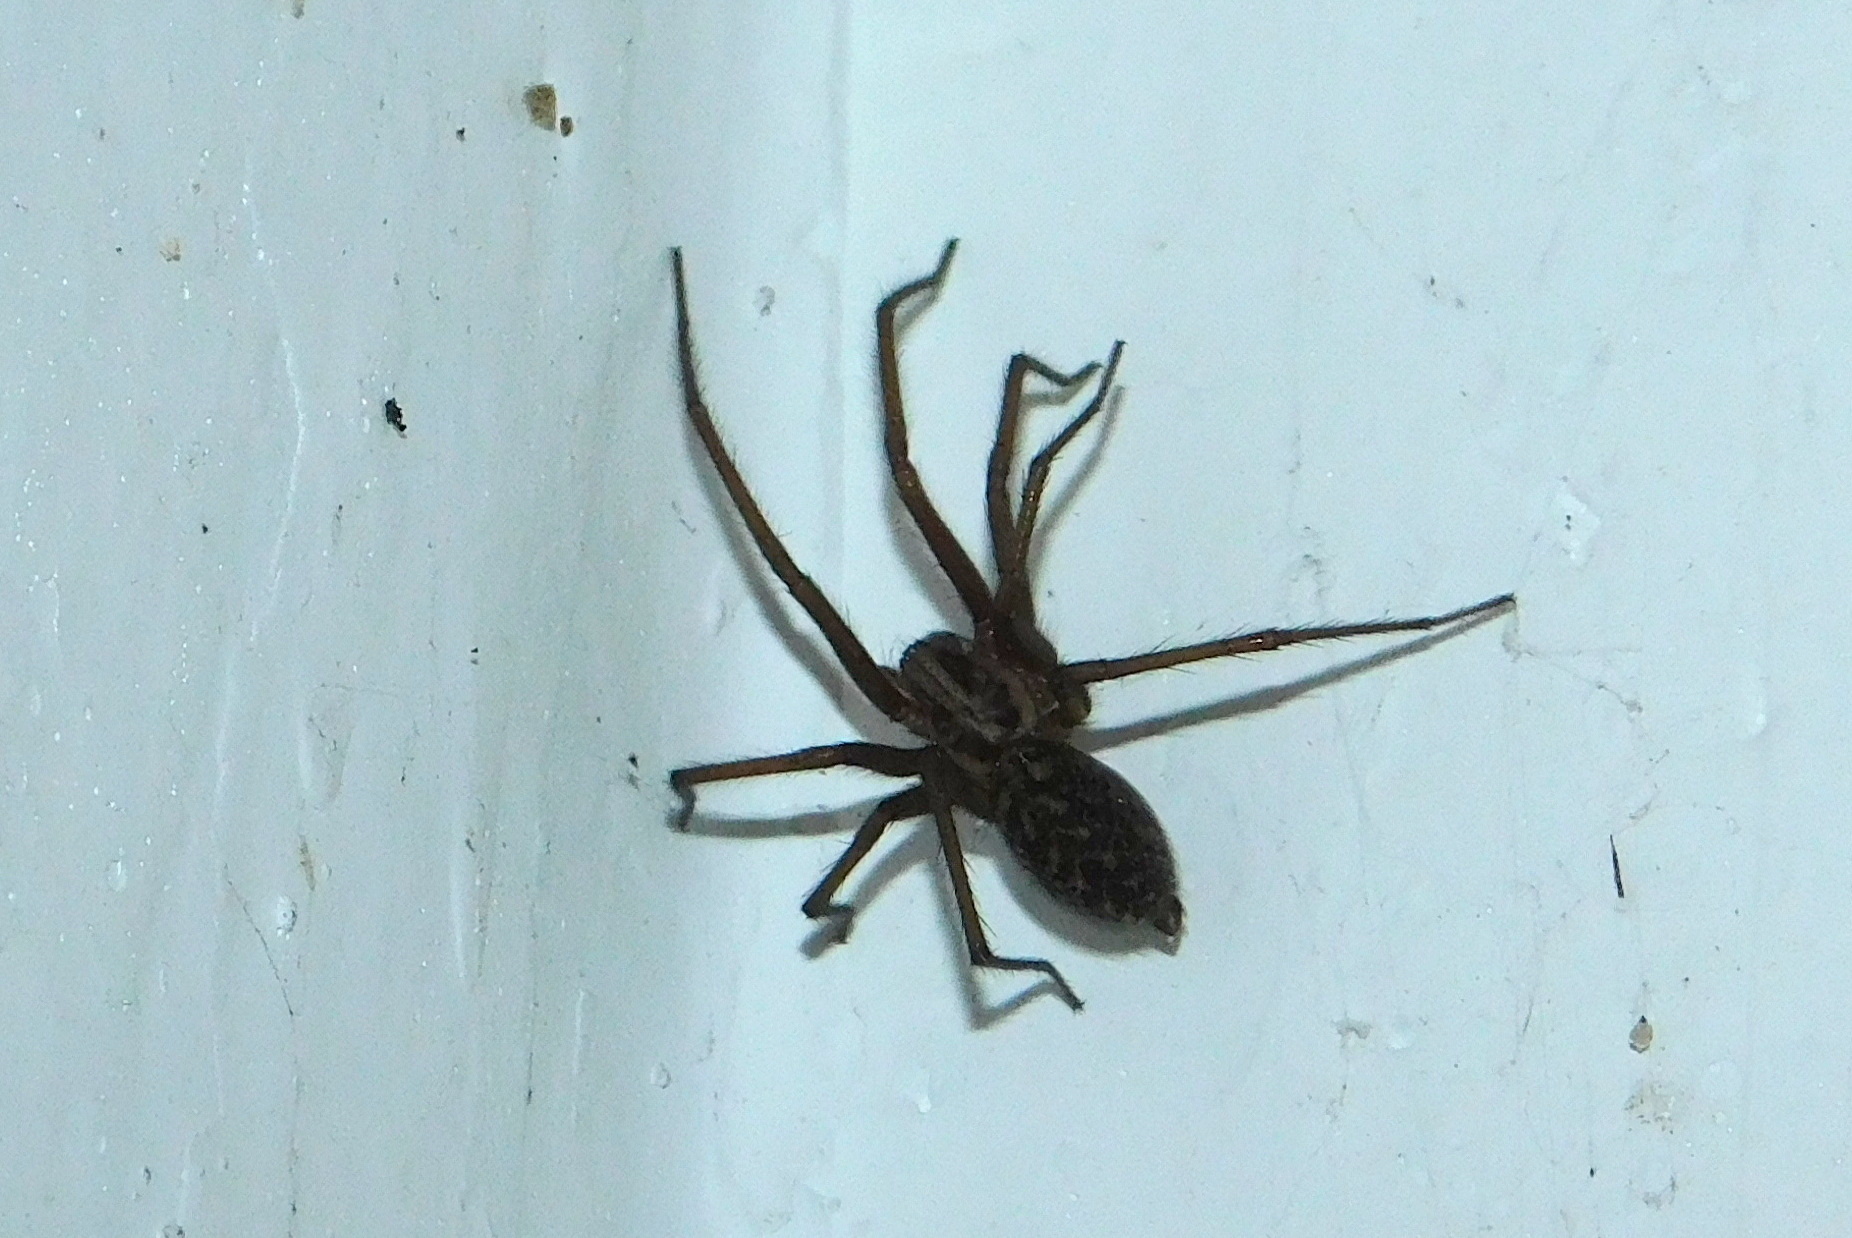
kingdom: Animalia
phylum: Arthropoda
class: Arachnida
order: Araneae
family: Agelenidae
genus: Eratigena
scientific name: Eratigena atrica
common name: Giant house spider
